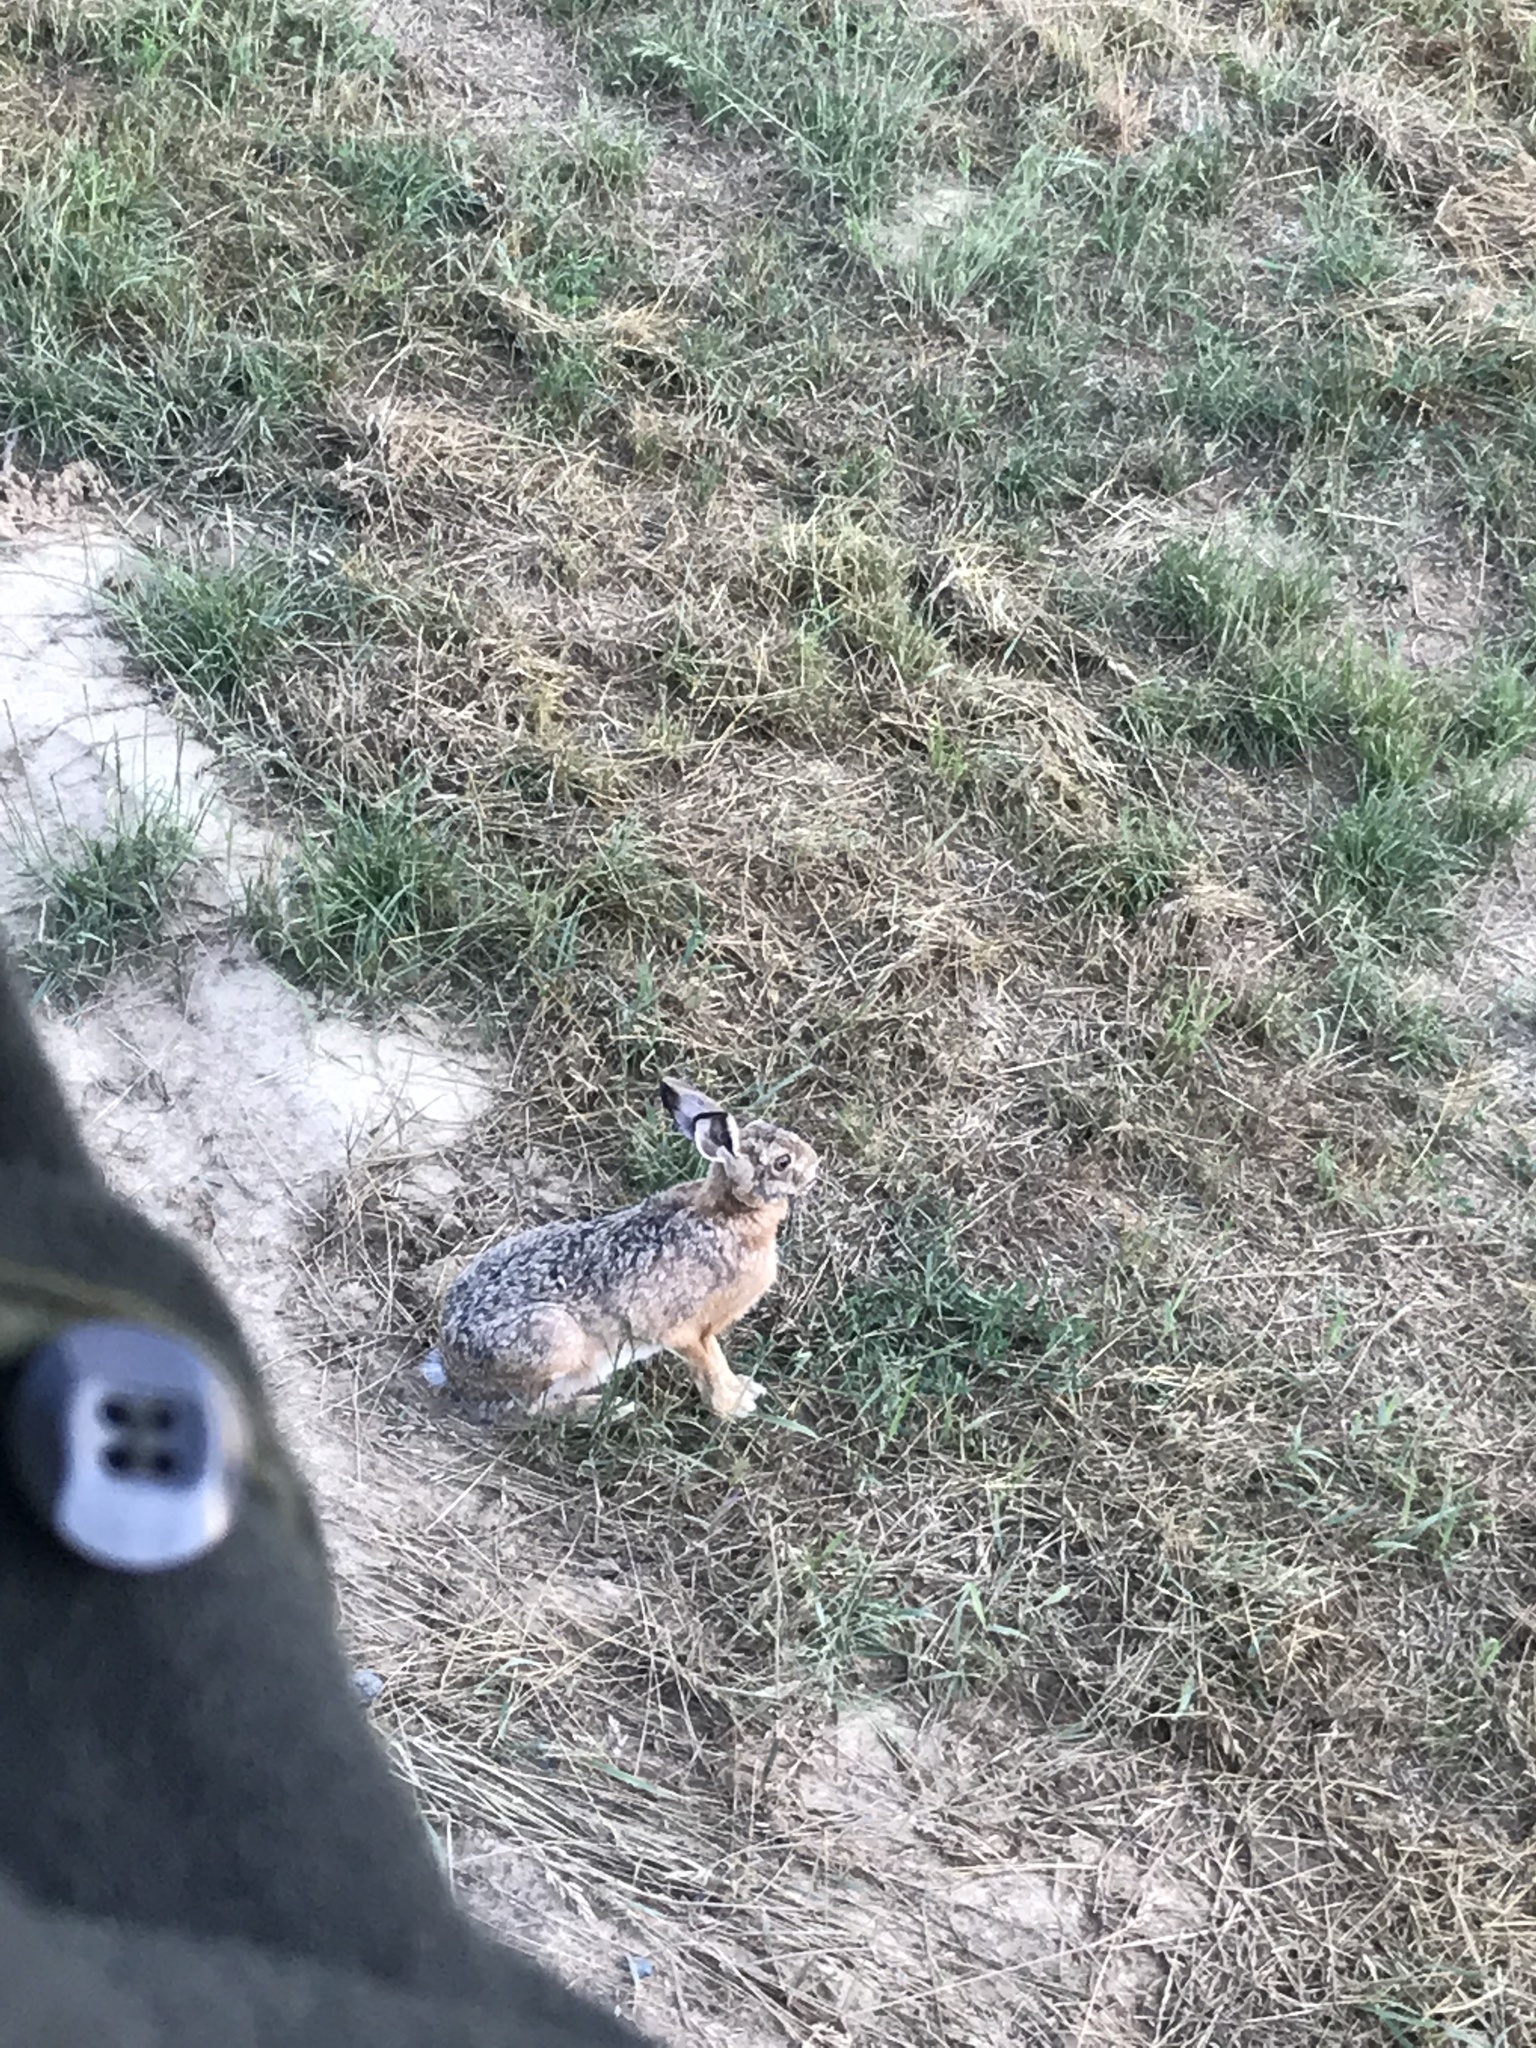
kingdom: Animalia
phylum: Chordata
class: Mammalia
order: Lagomorpha
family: Leporidae
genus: Lepus
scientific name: Lepus europaeus
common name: European hare
